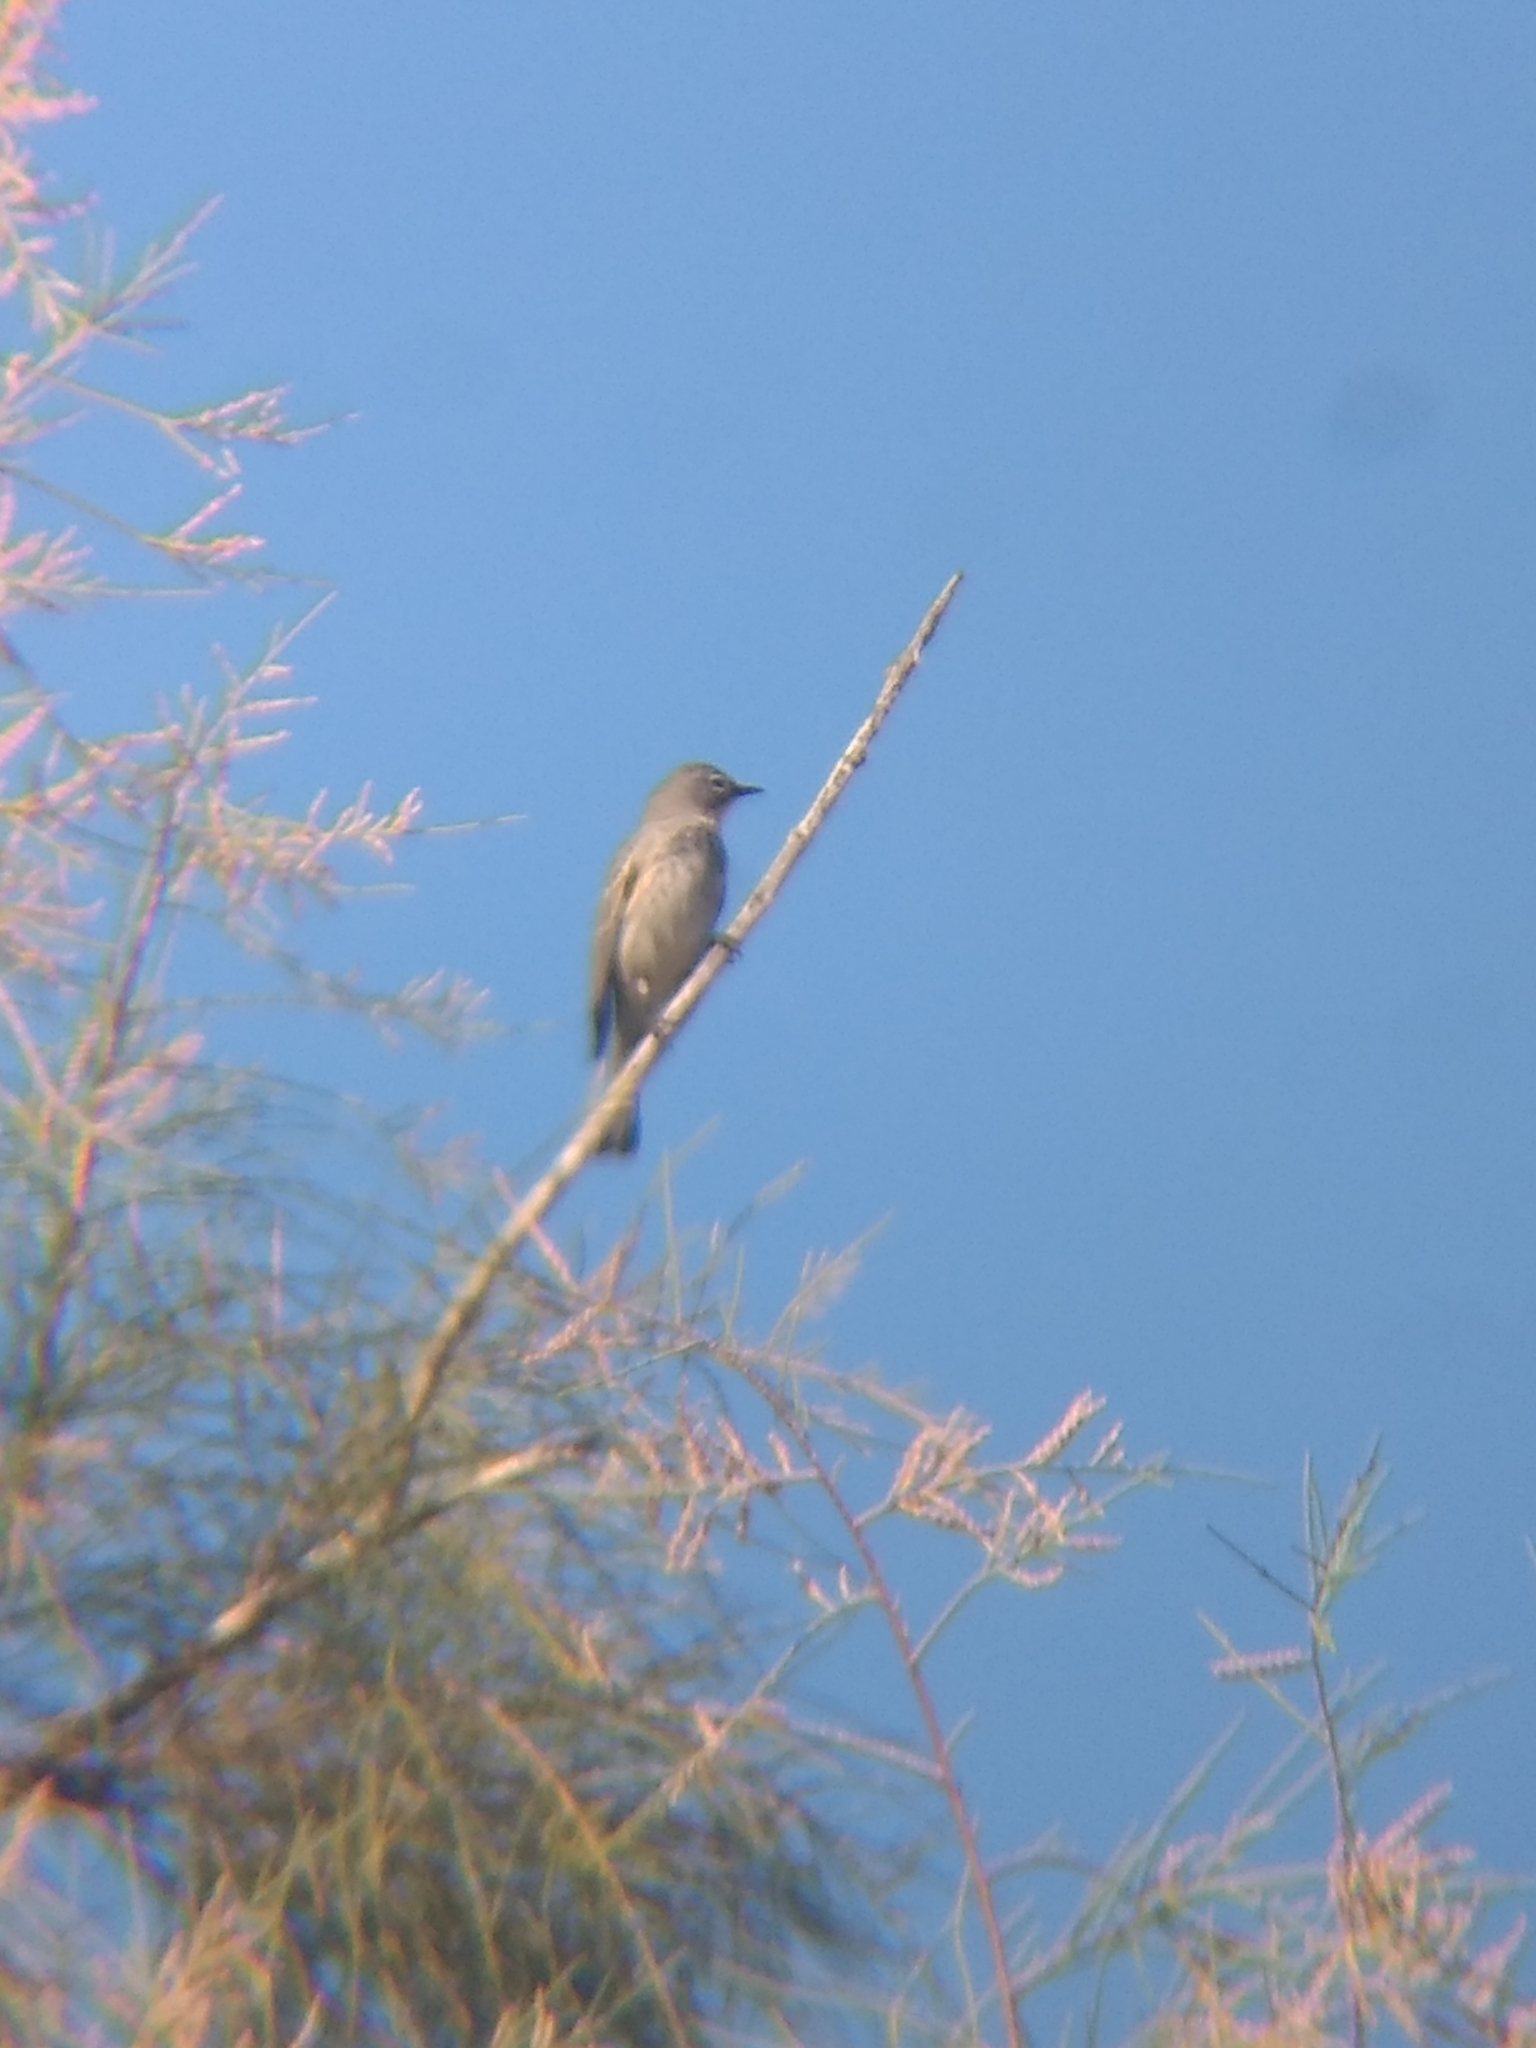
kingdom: Animalia
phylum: Chordata
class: Aves
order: Passeriformes
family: Parulidae
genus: Setophaga
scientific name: Setophaga coronata
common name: Myrtle warbler
